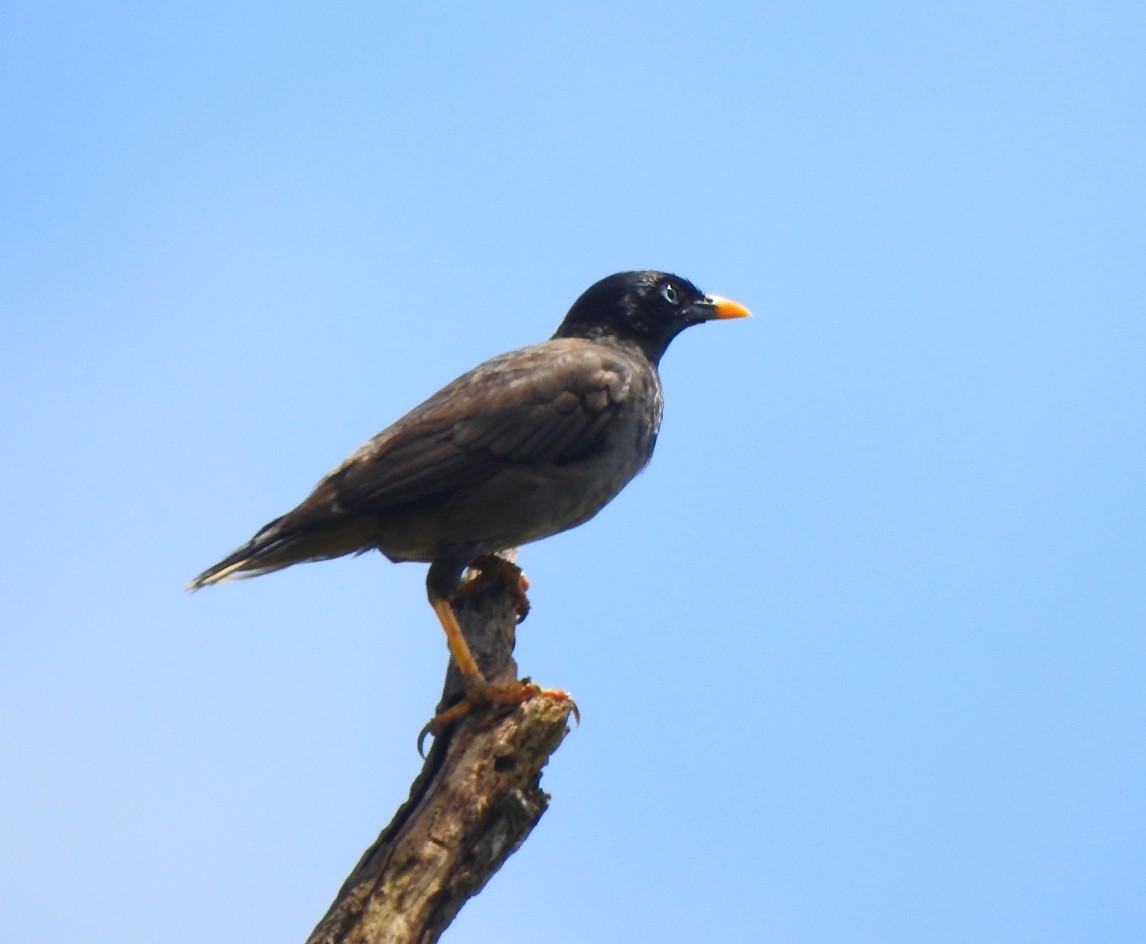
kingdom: Animalia
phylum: Chordata
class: Aves
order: Passeriformes
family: Sturnidae
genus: Acridotheres
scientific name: Acridotheres fuscus
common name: Jungle myna
